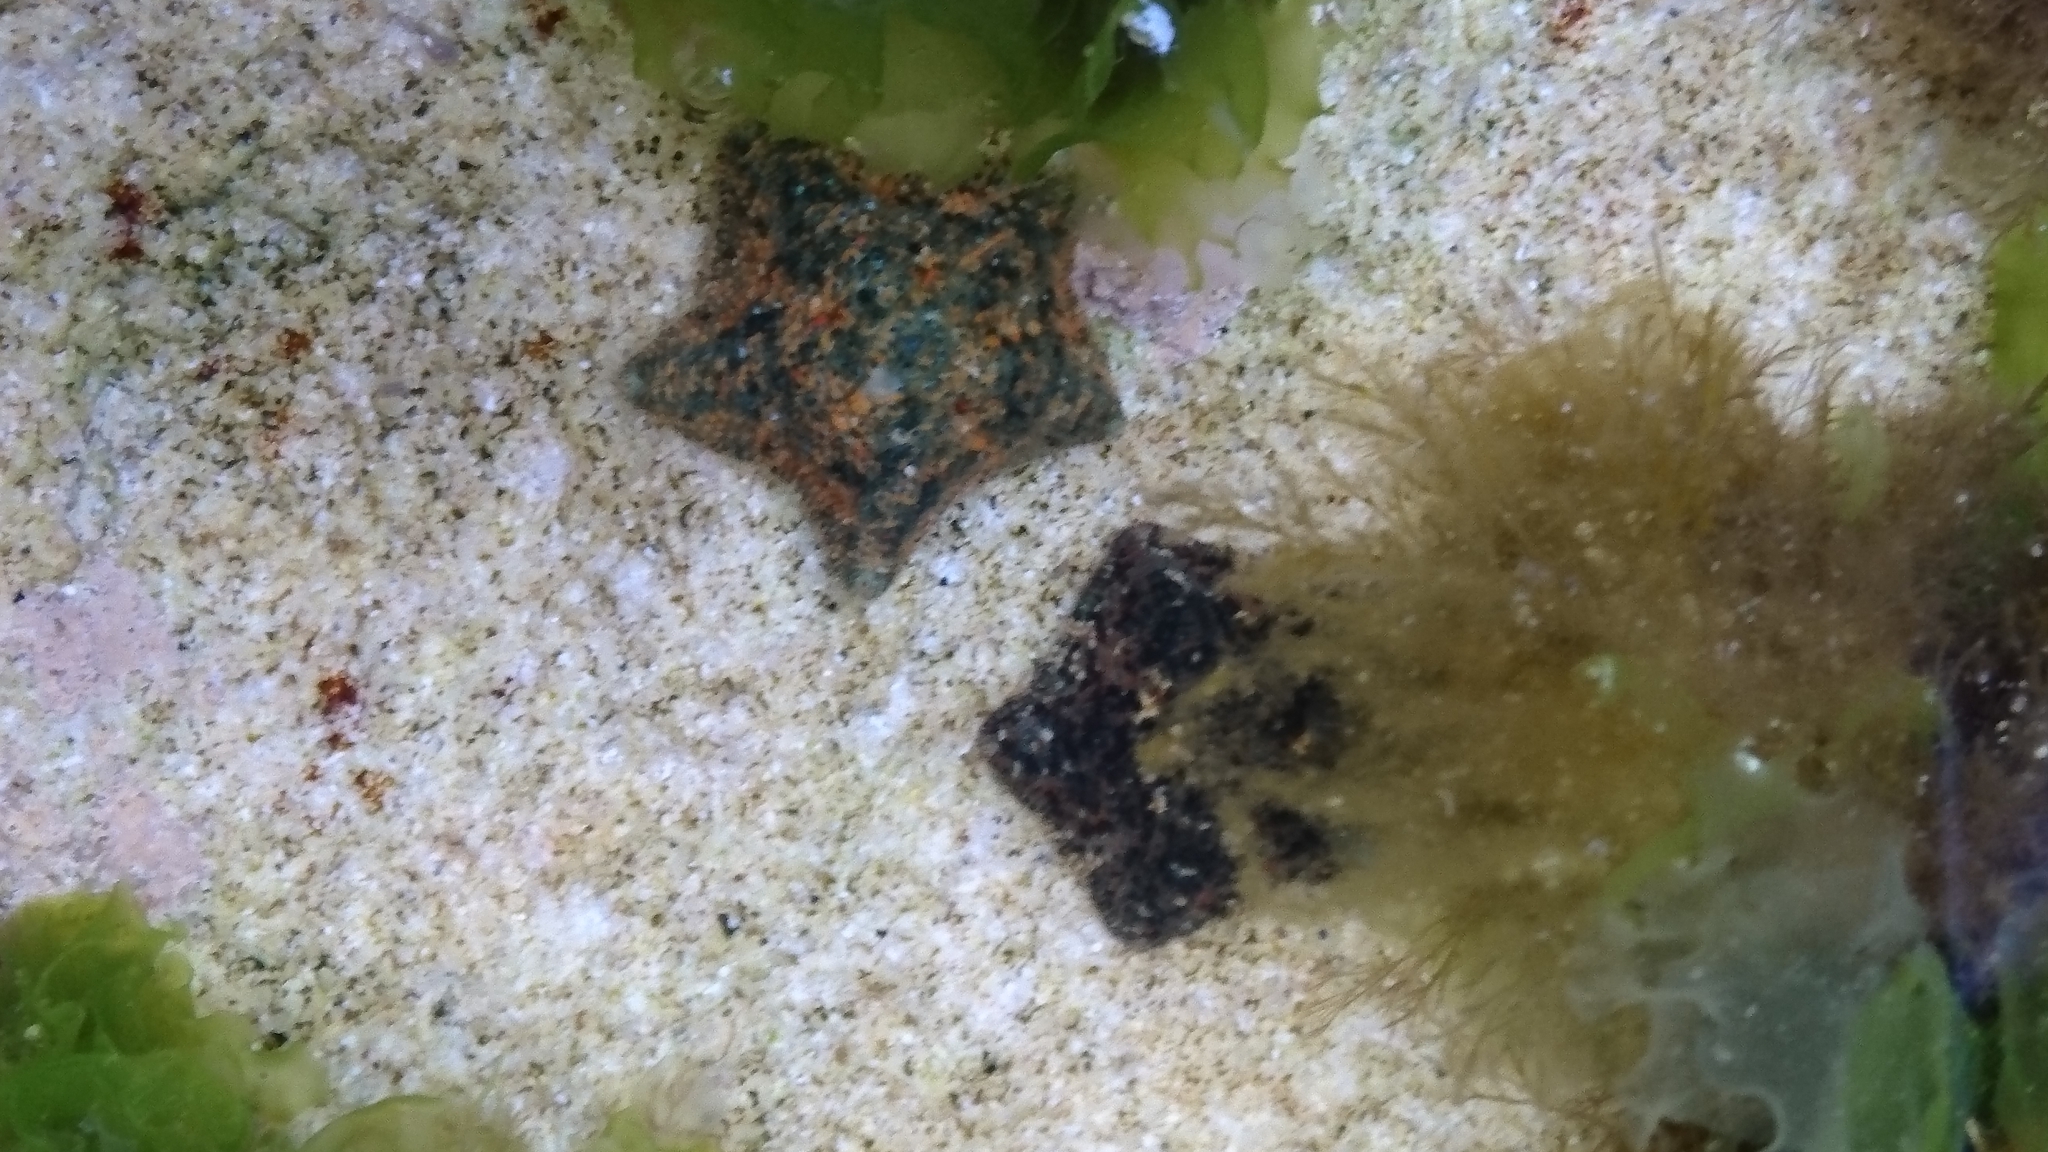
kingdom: Animalia
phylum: Echinodermata
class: Asteroidea
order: Valvatida
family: Asterinidae
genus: Parvulastra
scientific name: Parvulastra exigua
